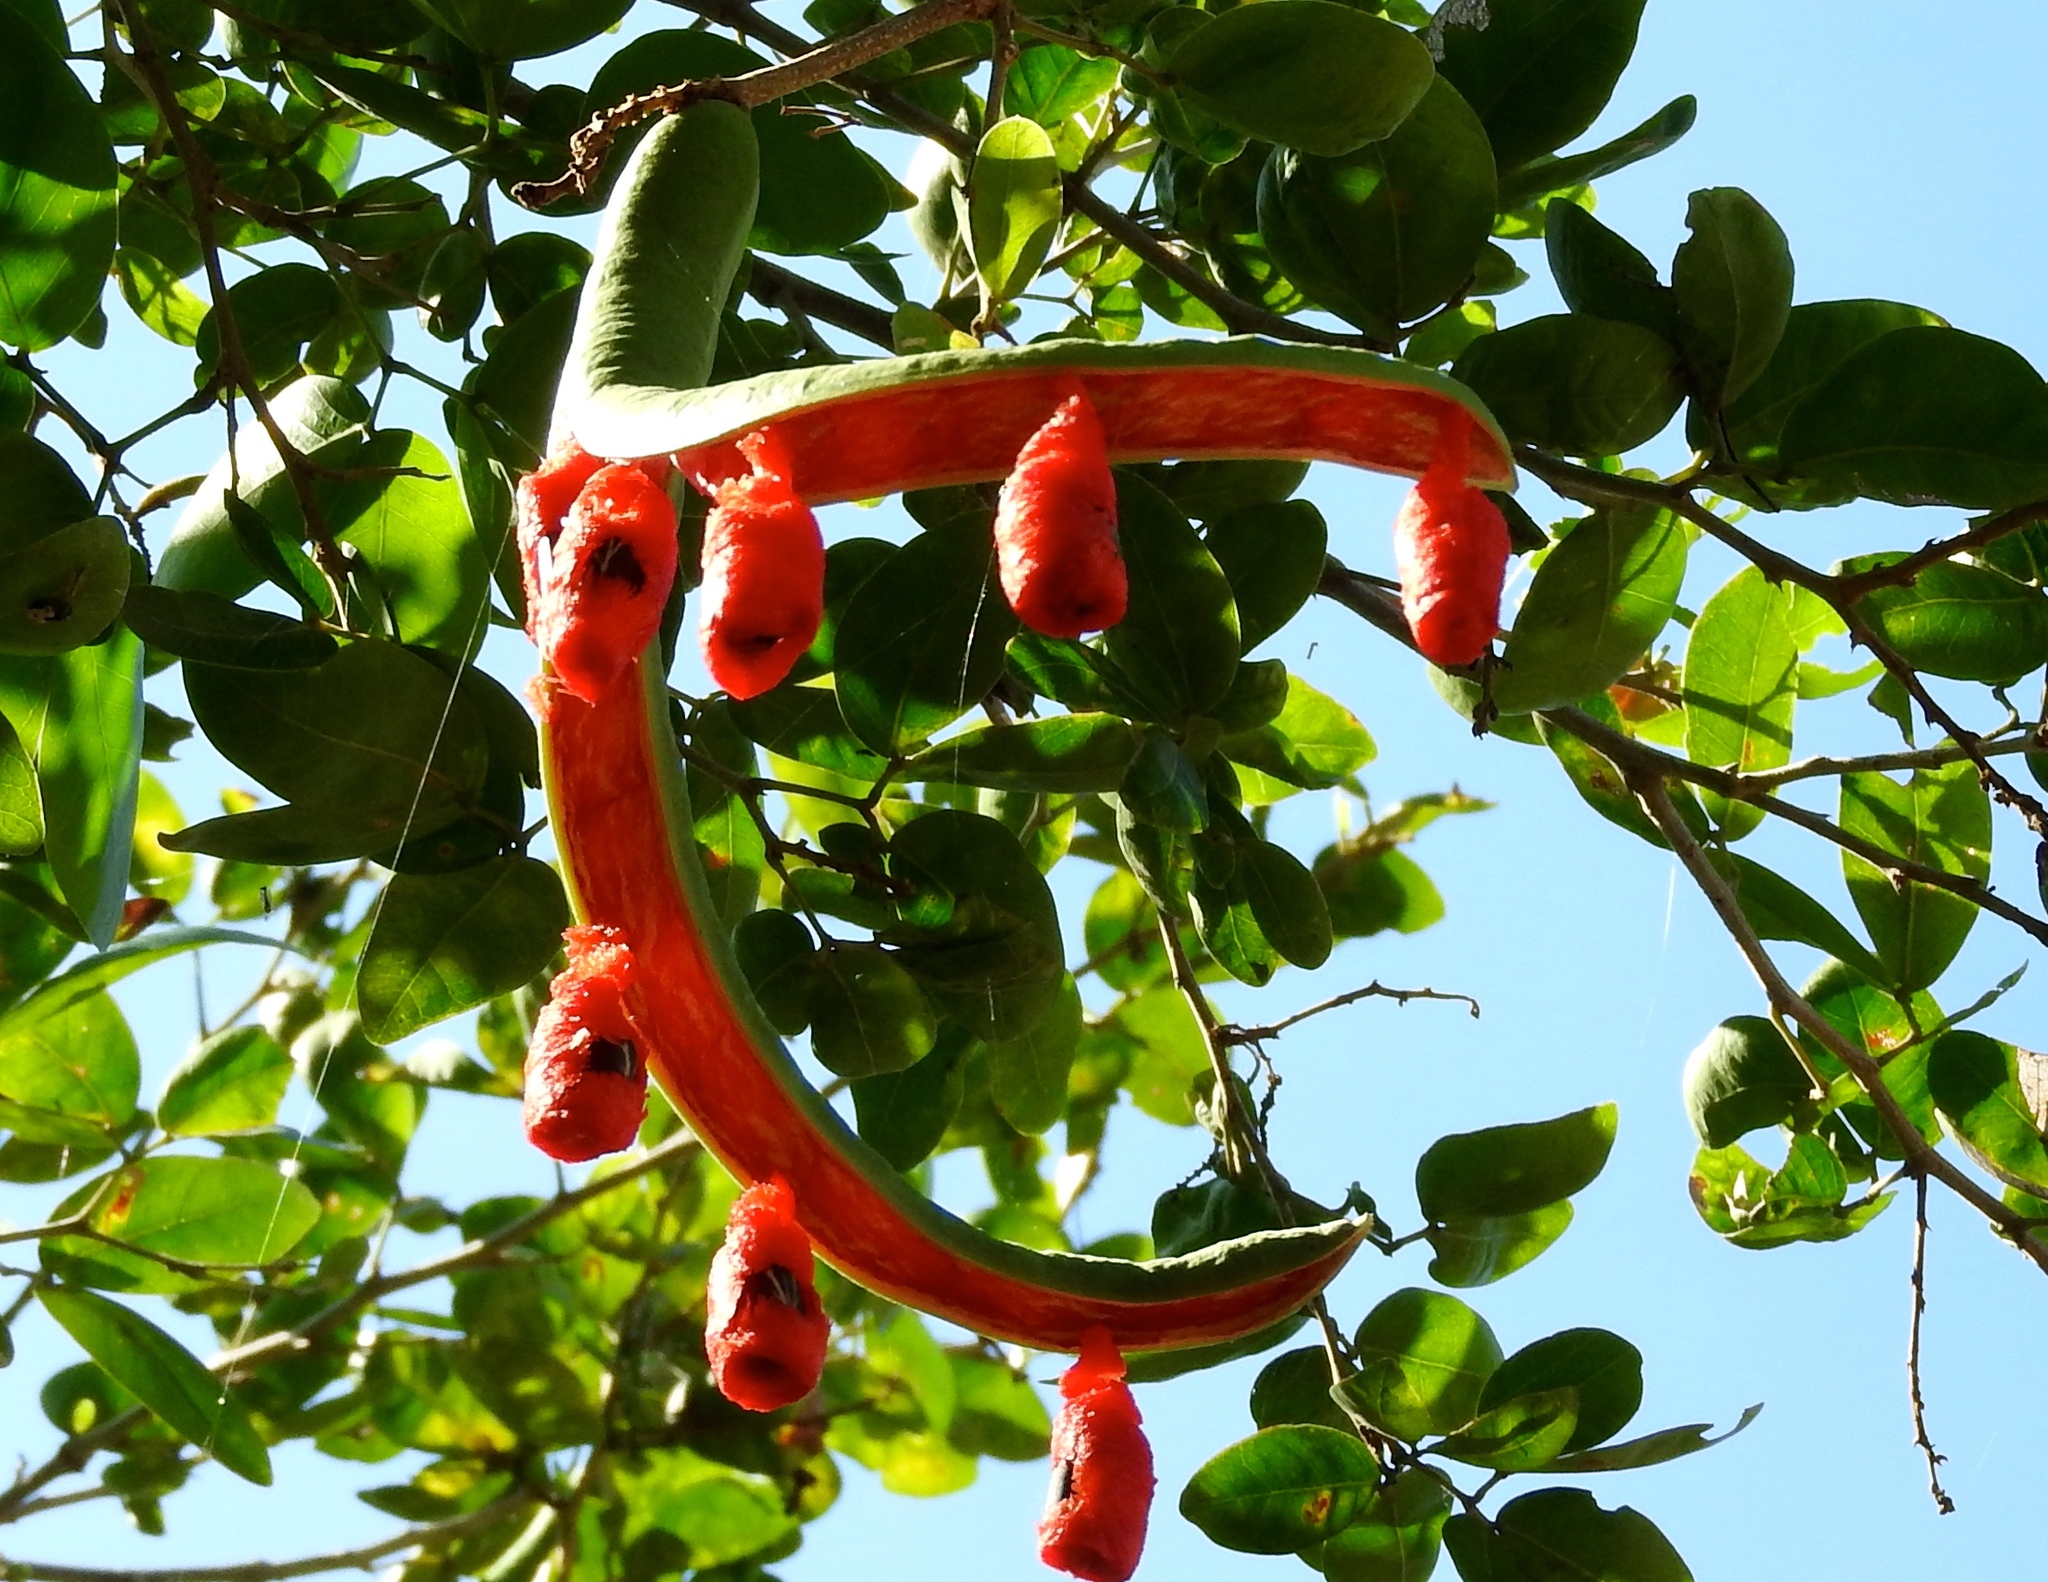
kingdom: Plantae
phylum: Tracheophyta
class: Magnoliopsida
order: Fabales
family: Fabaceae
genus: Pithecellobium
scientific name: Pithecellobium lanceolatum
